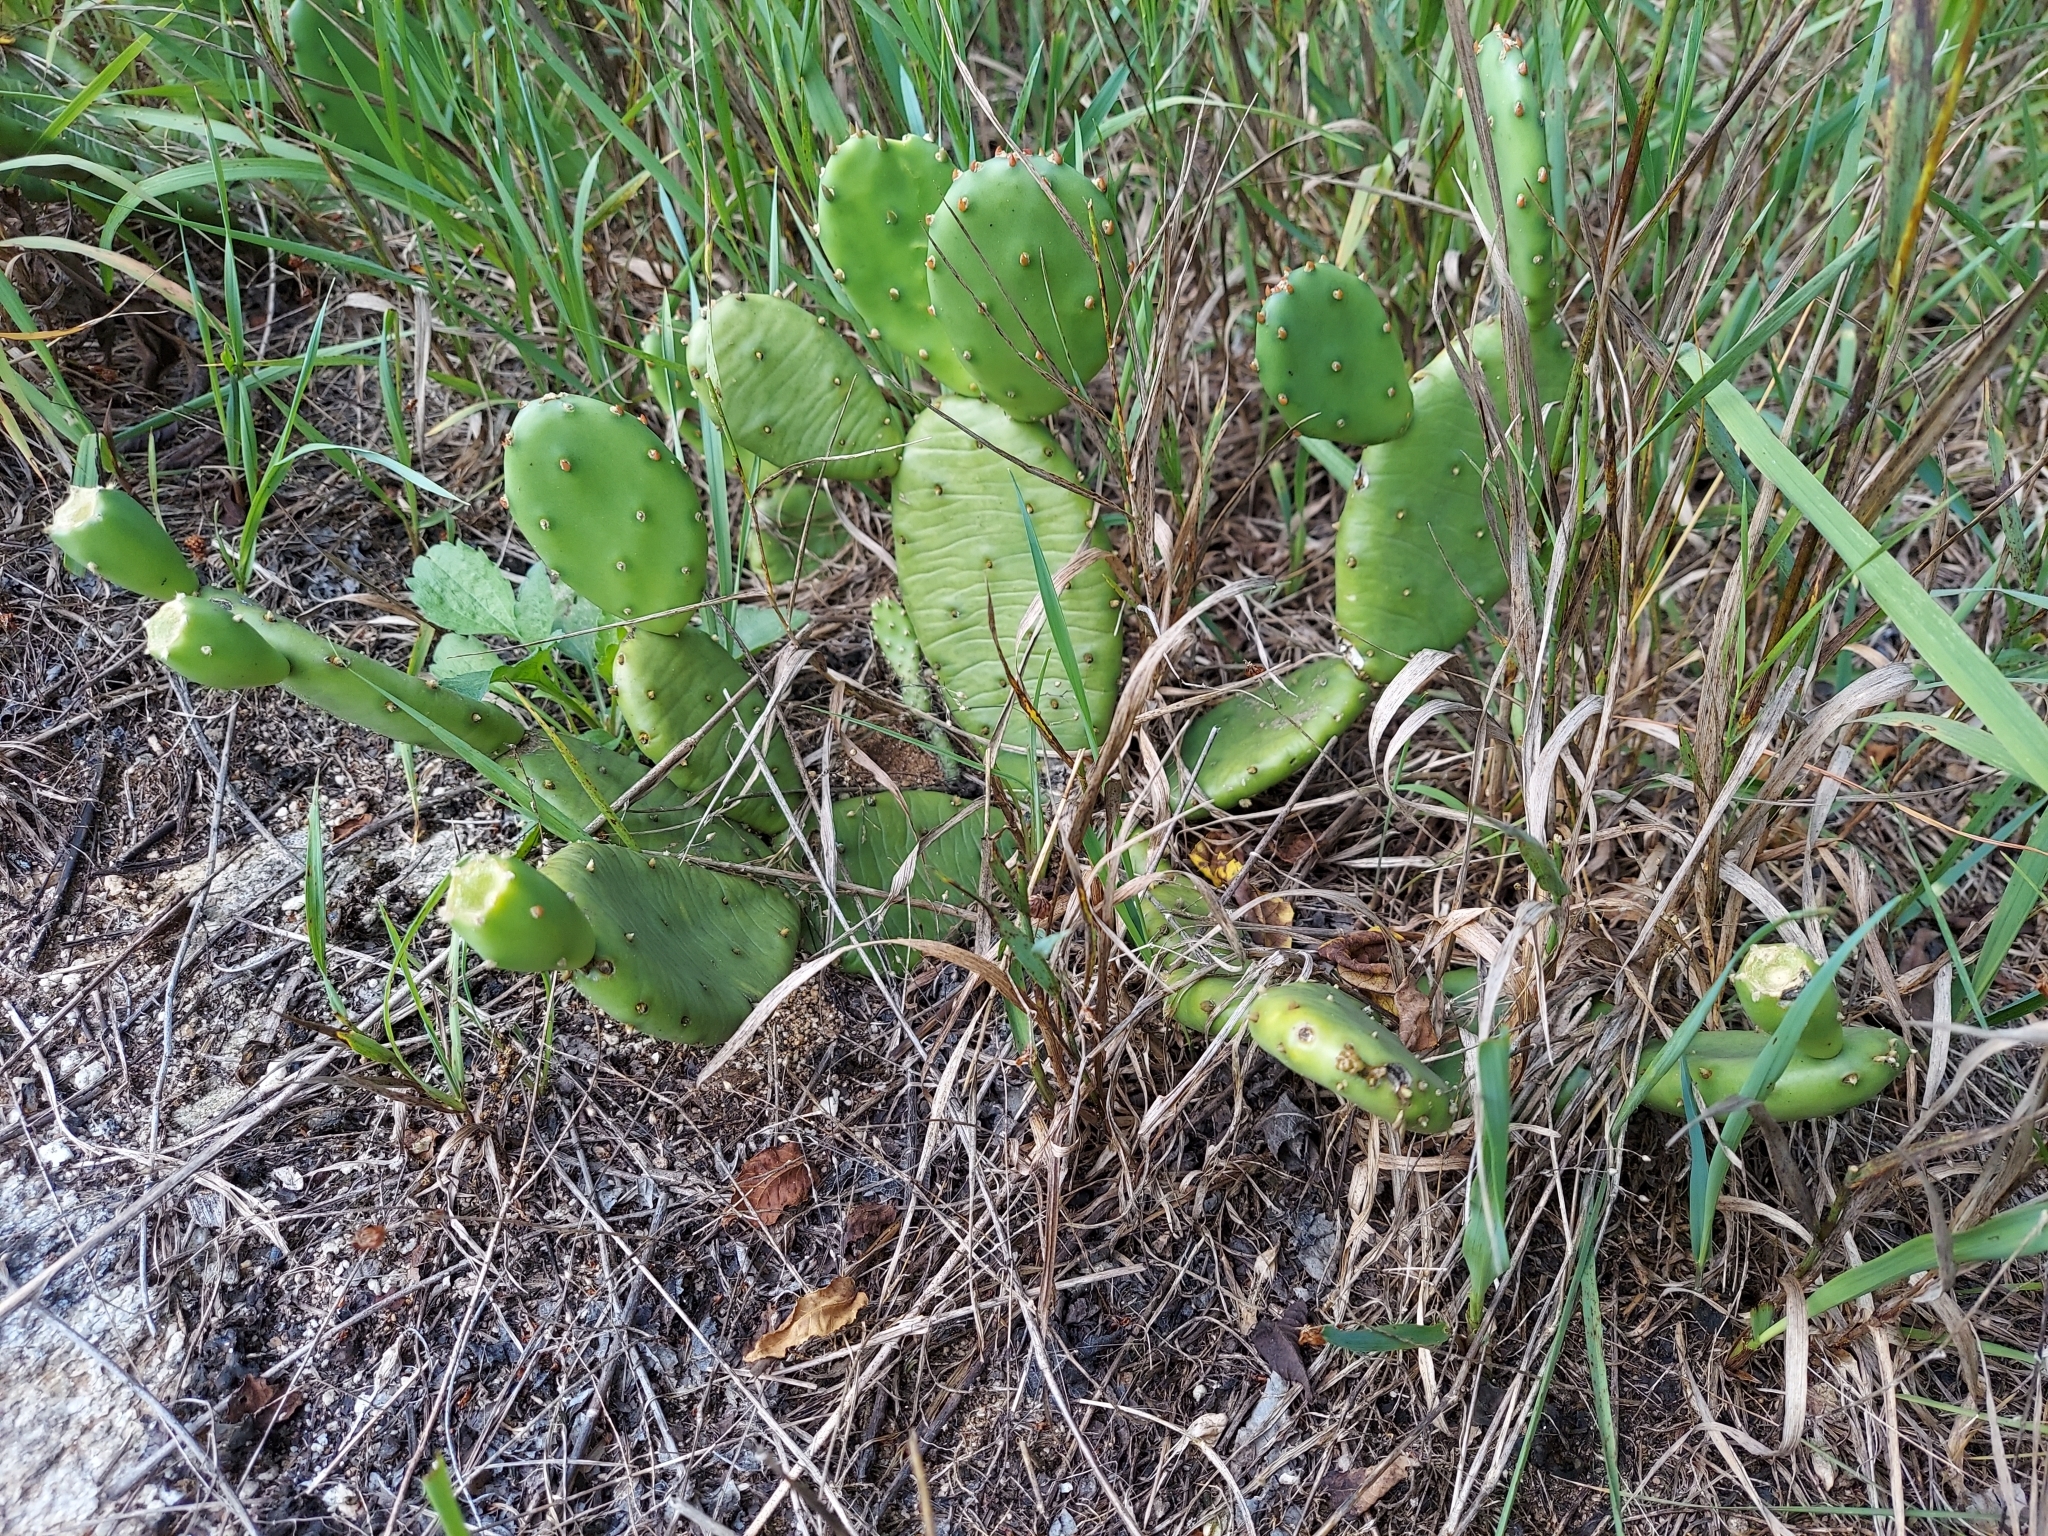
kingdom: Plantae
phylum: Tracheophyta
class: Magnoliopsida
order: Caryophyllales
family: Cactaceae
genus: Opuntia
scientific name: Opuntia humifusa
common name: Eastern prickly-pear
